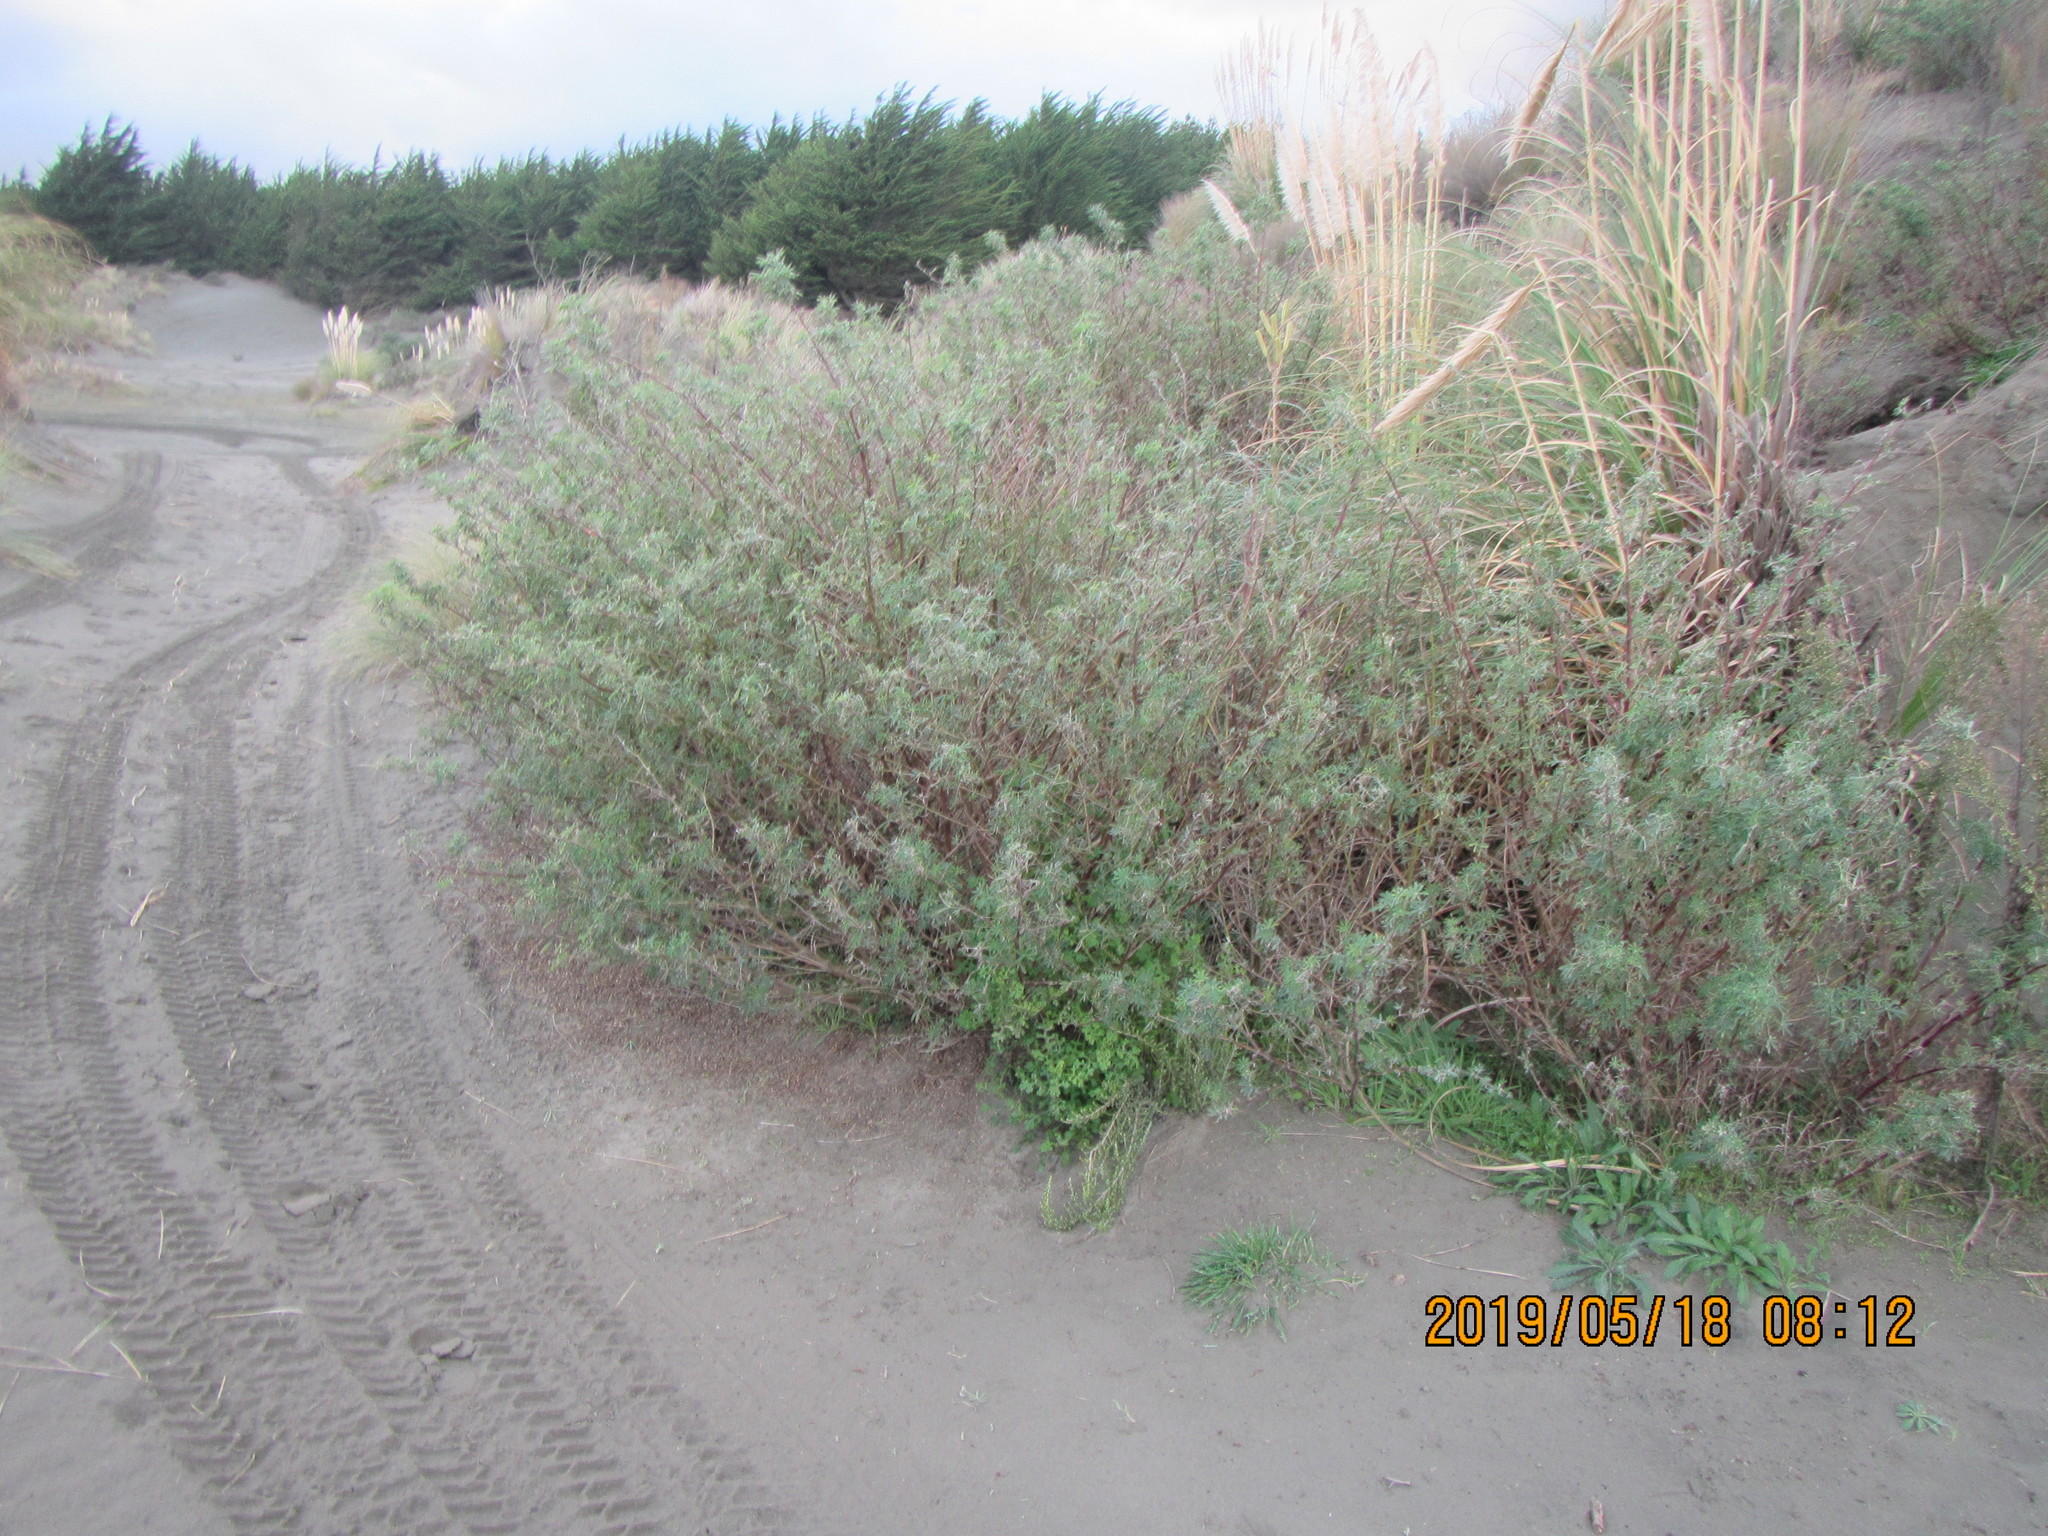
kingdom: Plantae
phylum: Tracheophyta
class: Magnoliopsida
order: Fabales
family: Fabaceae
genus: Lupinus
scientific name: Lupinus arboreus
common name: Yellow bush lupine
